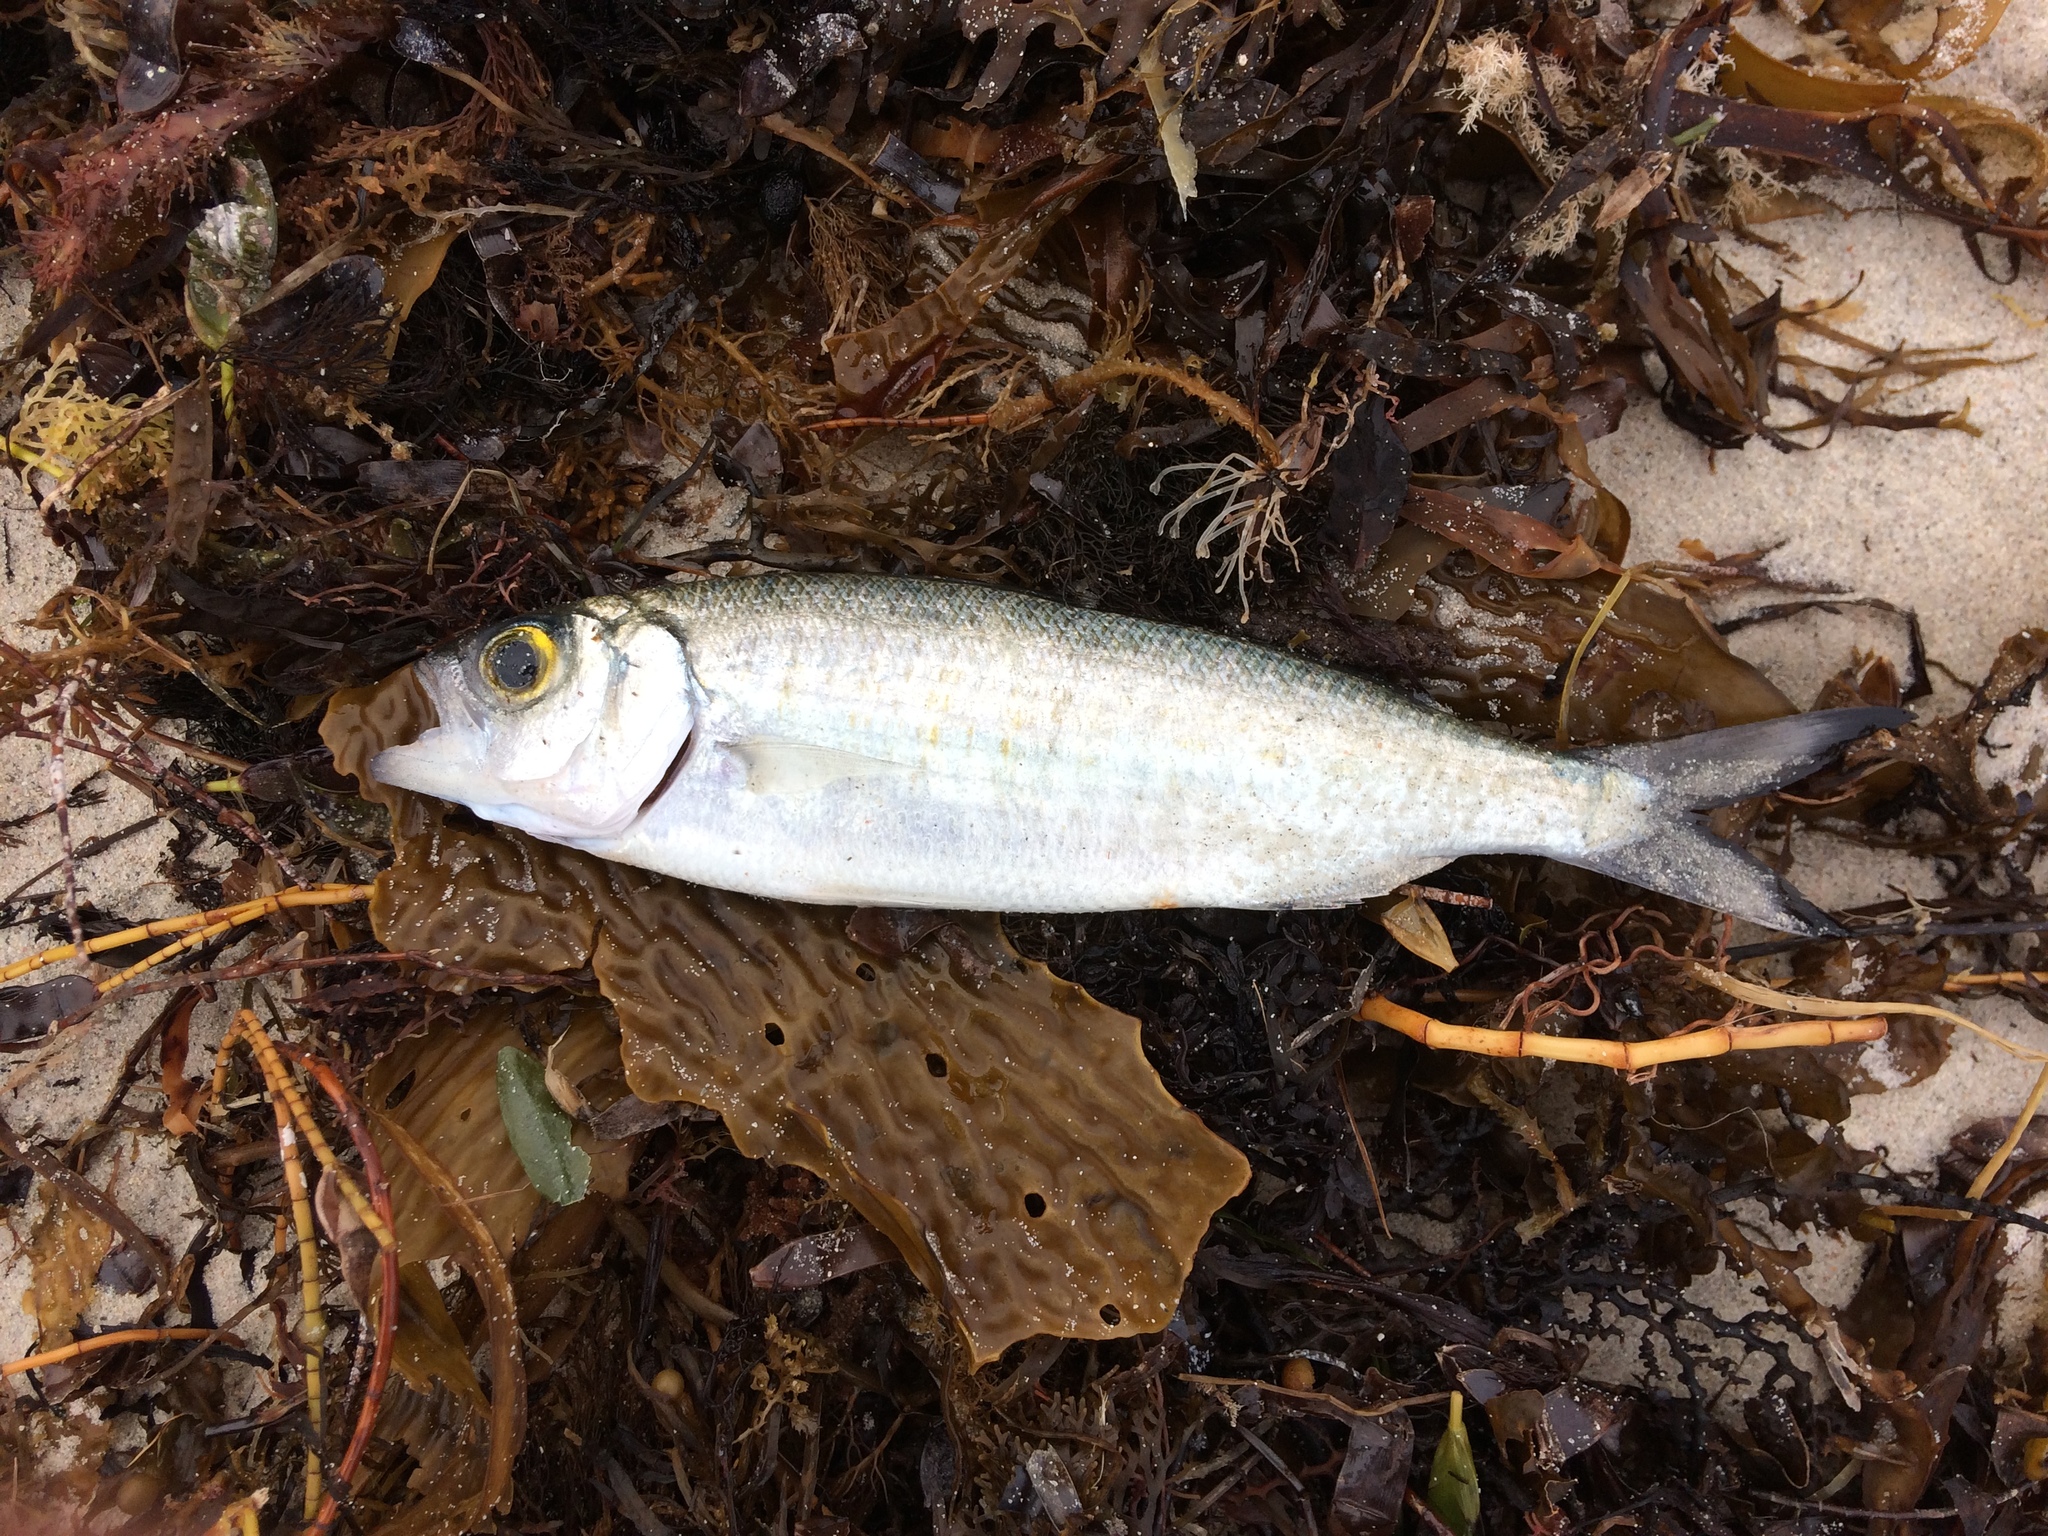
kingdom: Animalia
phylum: Chordata
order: Perciformes
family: Arripidae
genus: Arripis
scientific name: Arripis georgianus
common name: Australian herring
